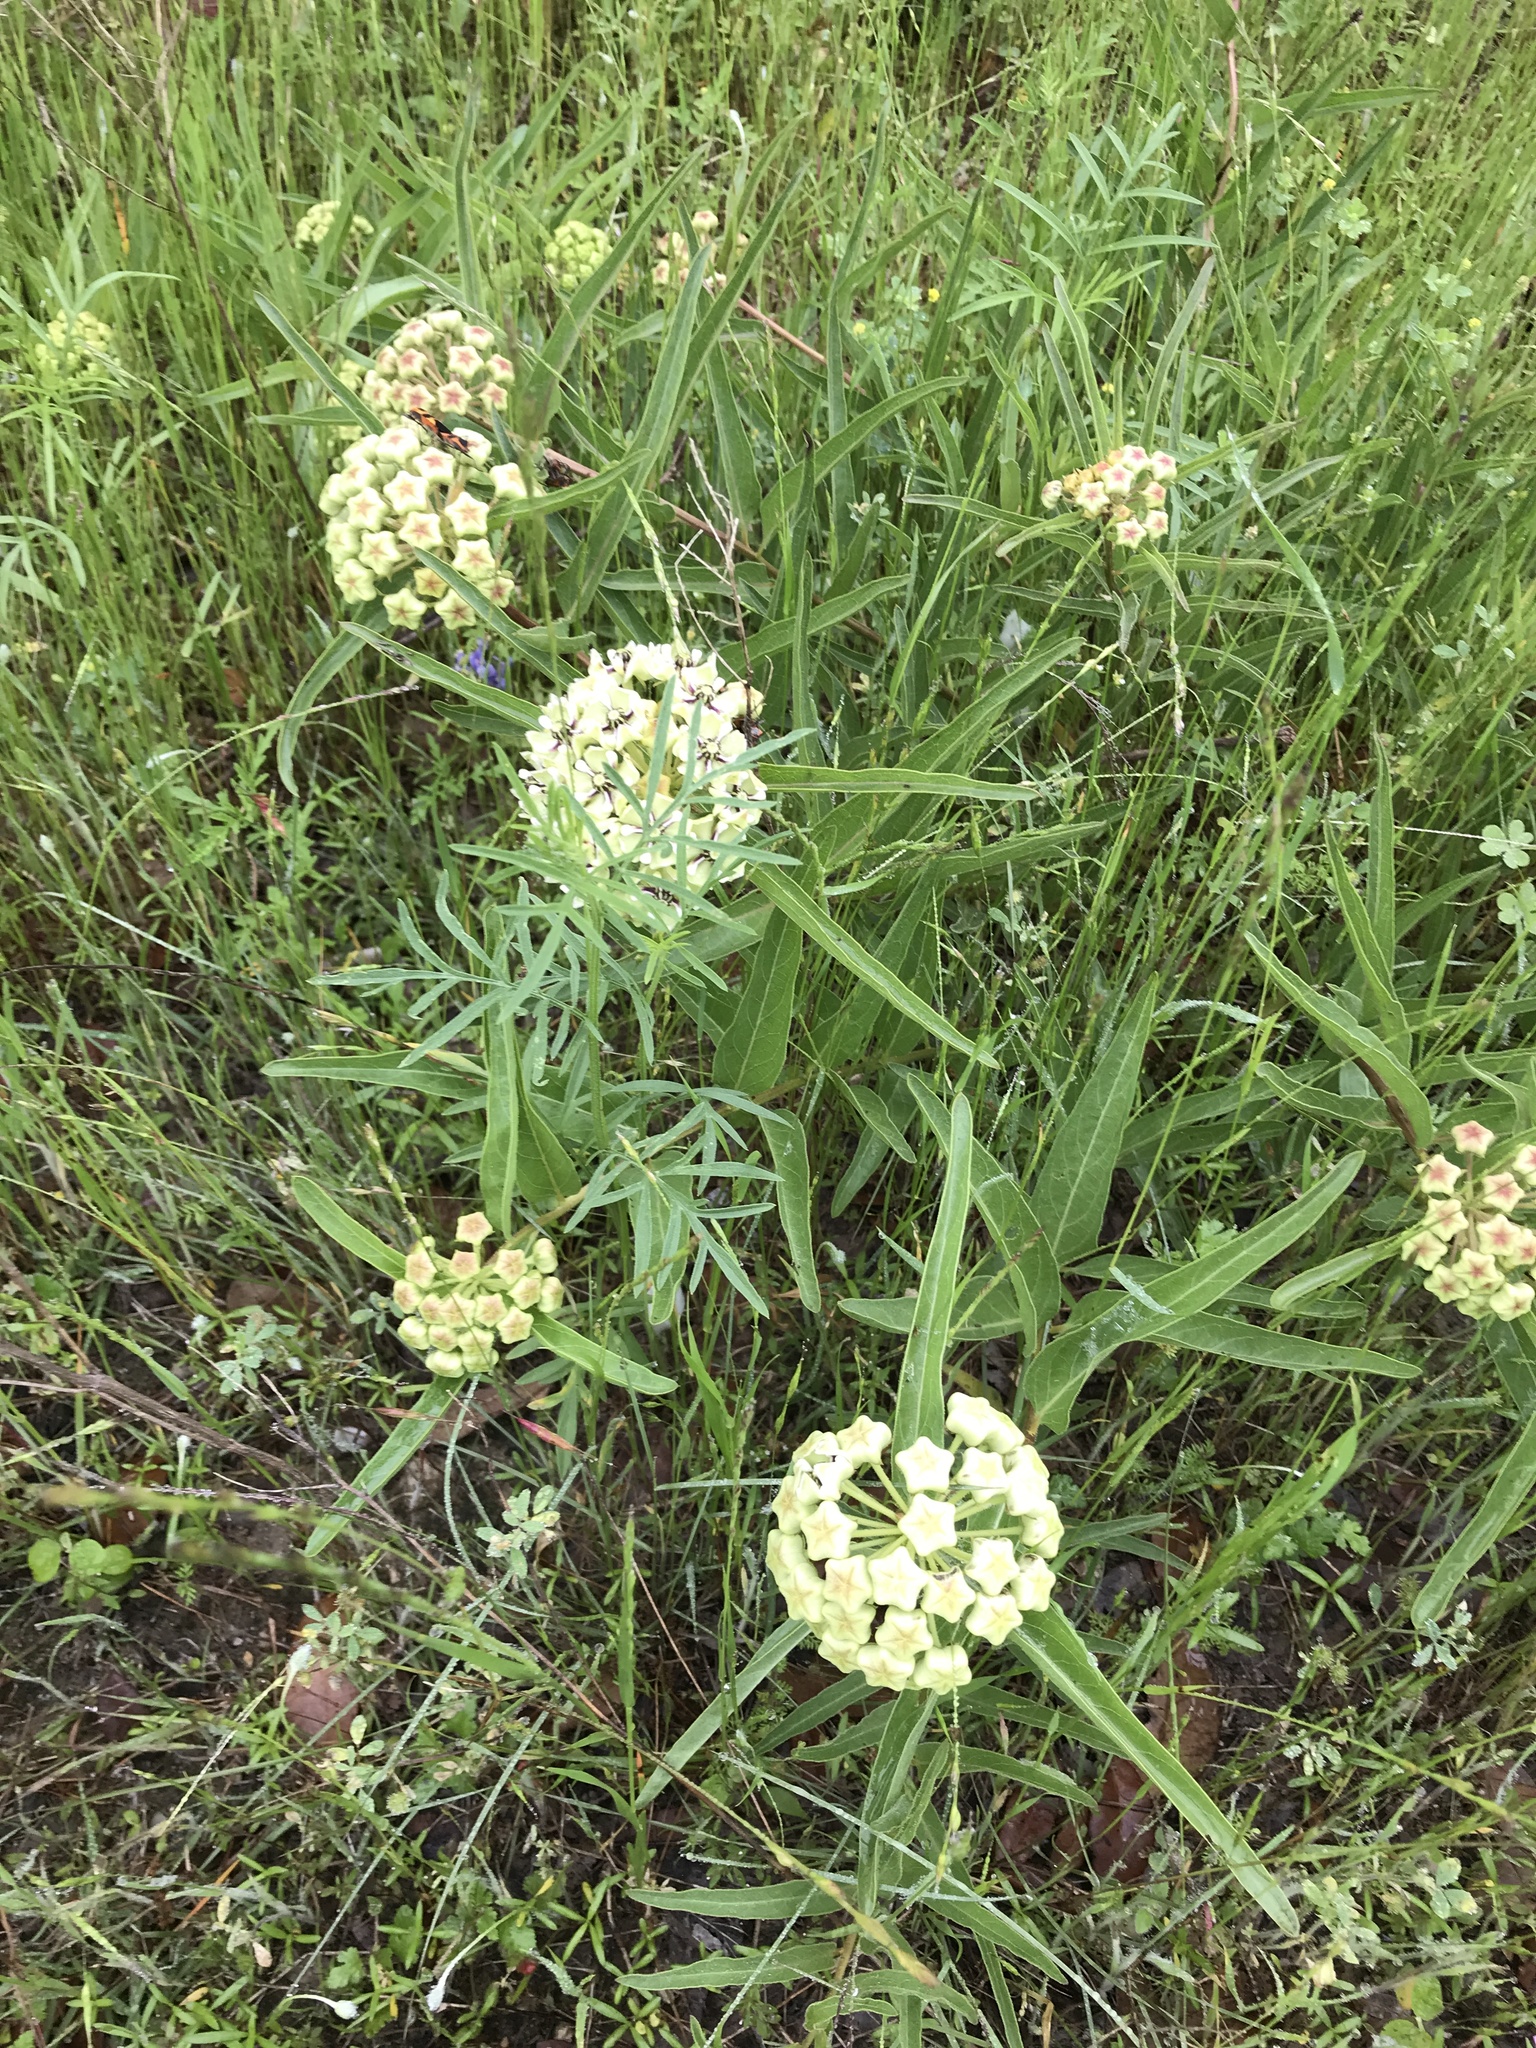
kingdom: Plantae
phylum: Tracheophyta
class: Magnoliopsida
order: Gentianales
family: Apocynaceae
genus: Asclepias
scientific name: Asclepias asperula
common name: Antelope horns
